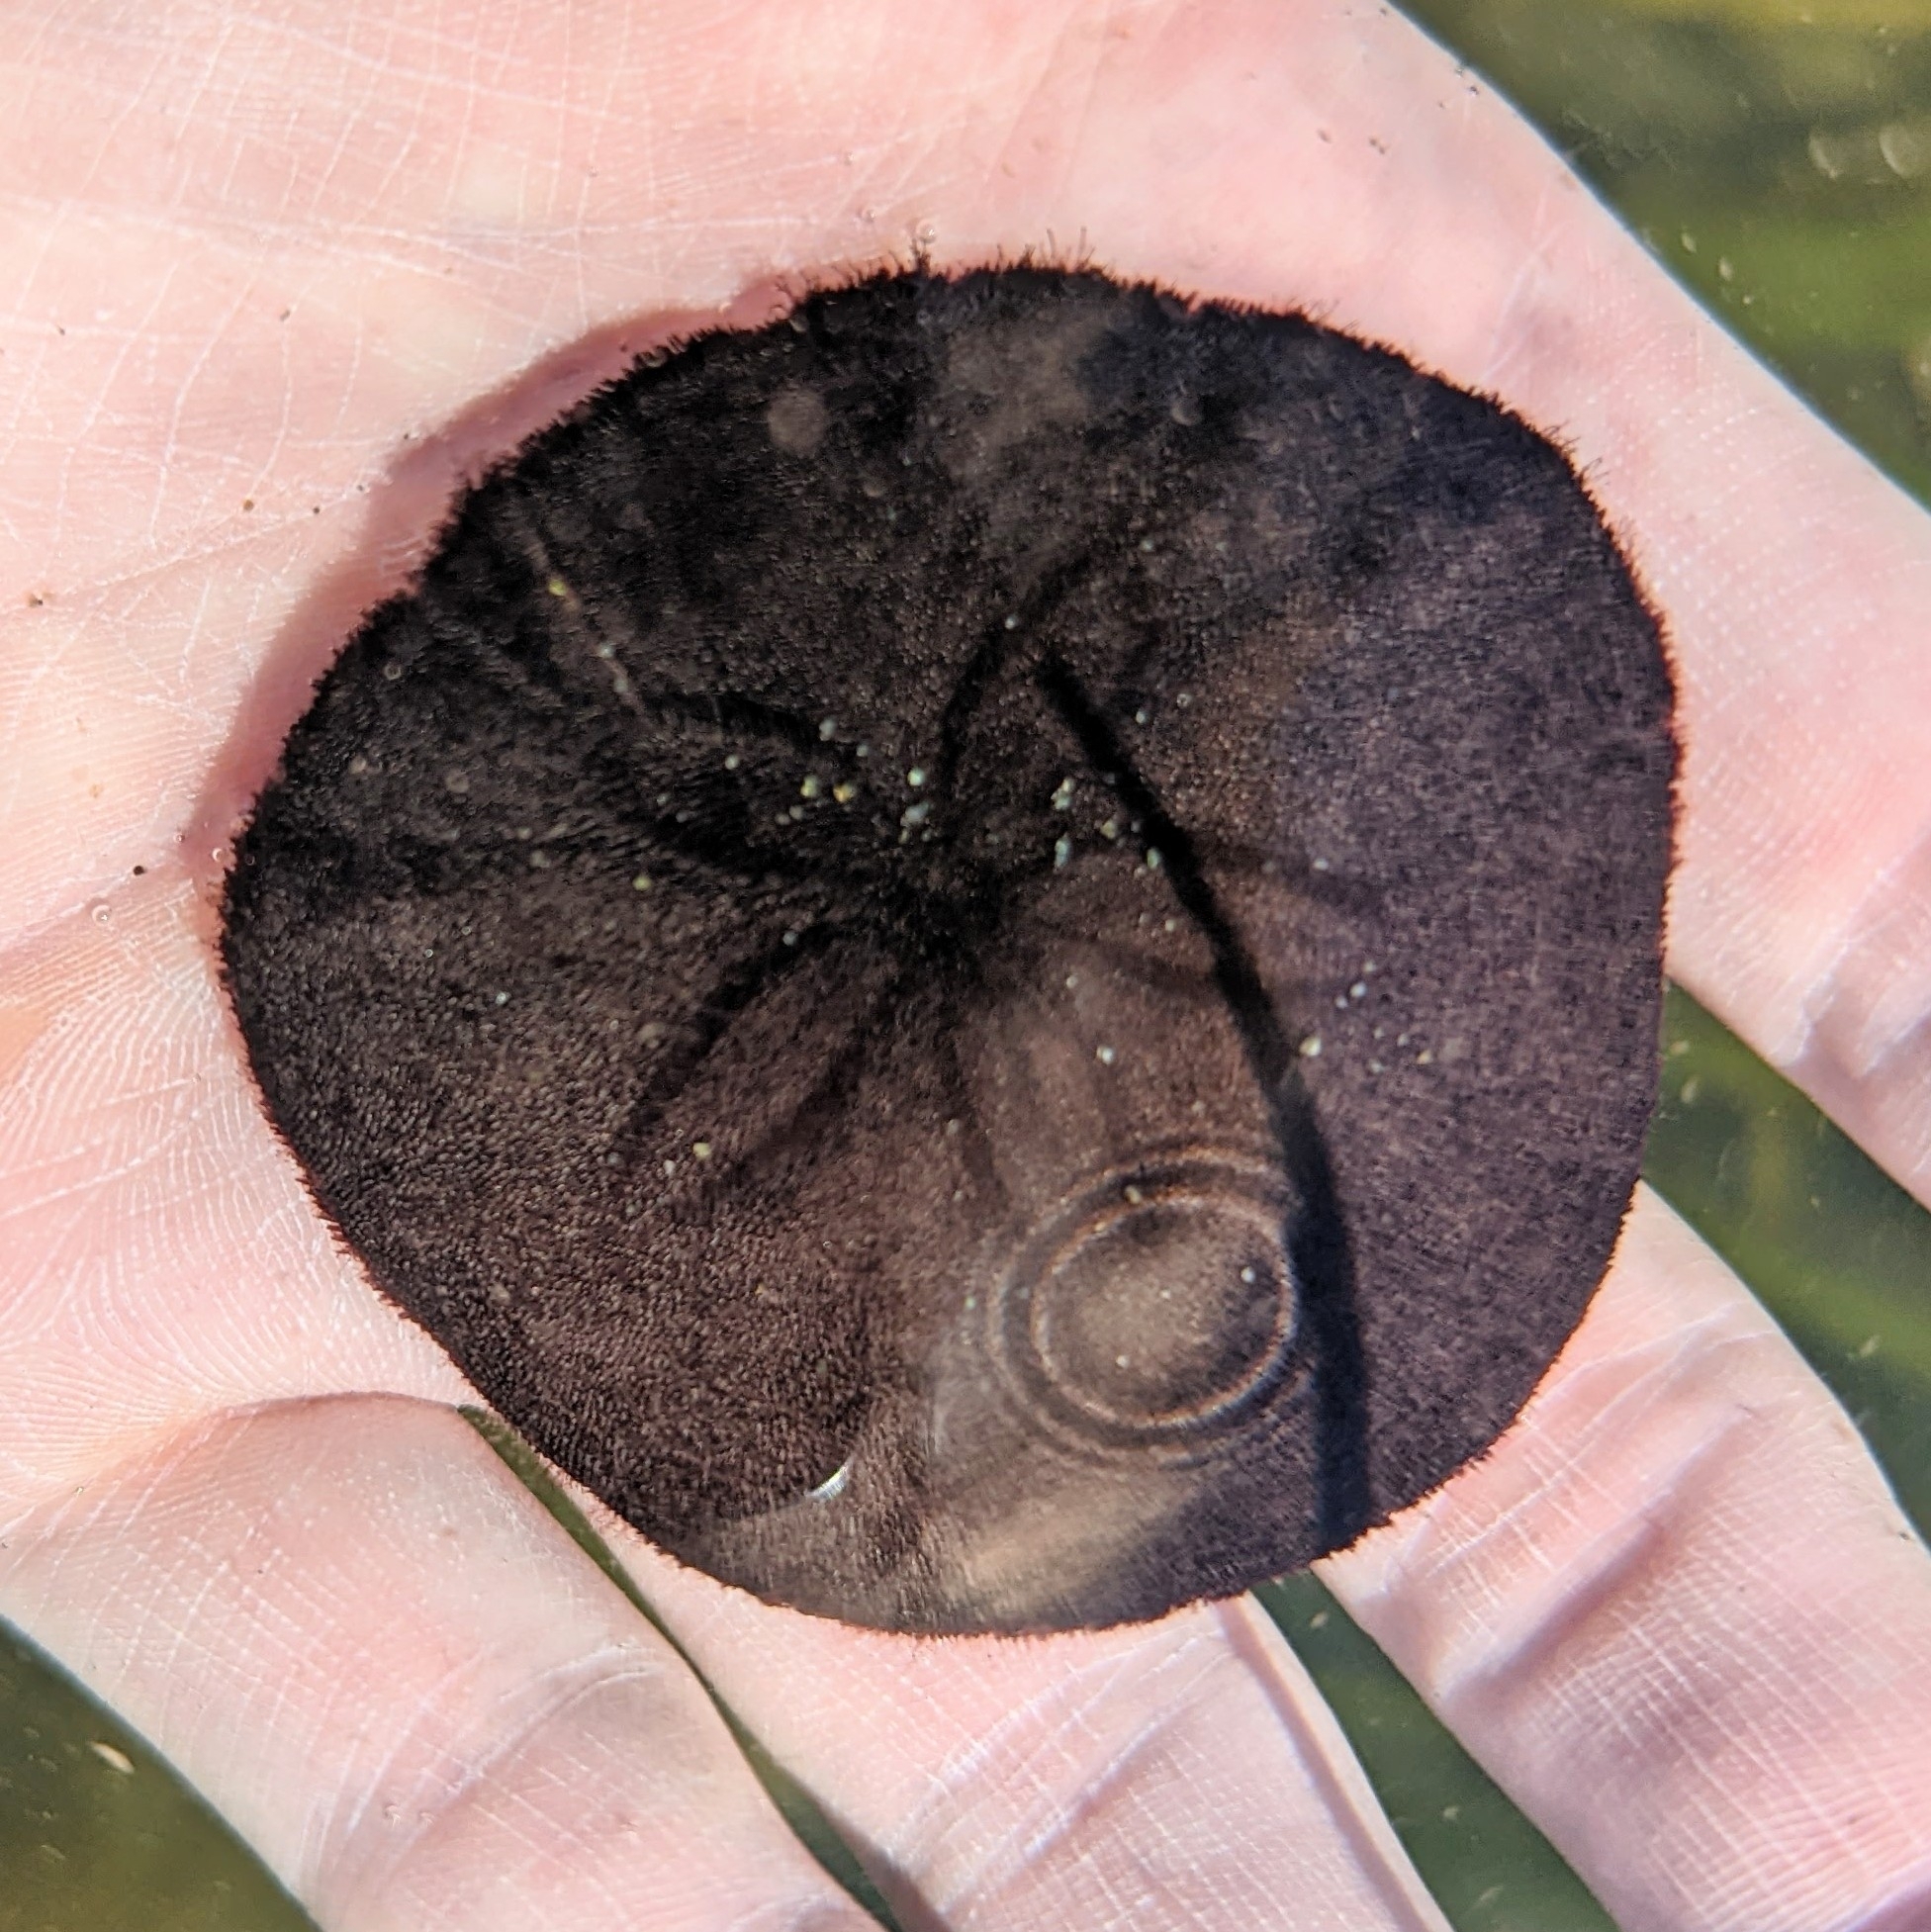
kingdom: Animalia
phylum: Echinodermata
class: Echinoidea
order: Echinolampadacea
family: Dendrasteridae
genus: Dendraster
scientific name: Dendraster excentricus
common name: Eccentric sand dollar sea urchin
